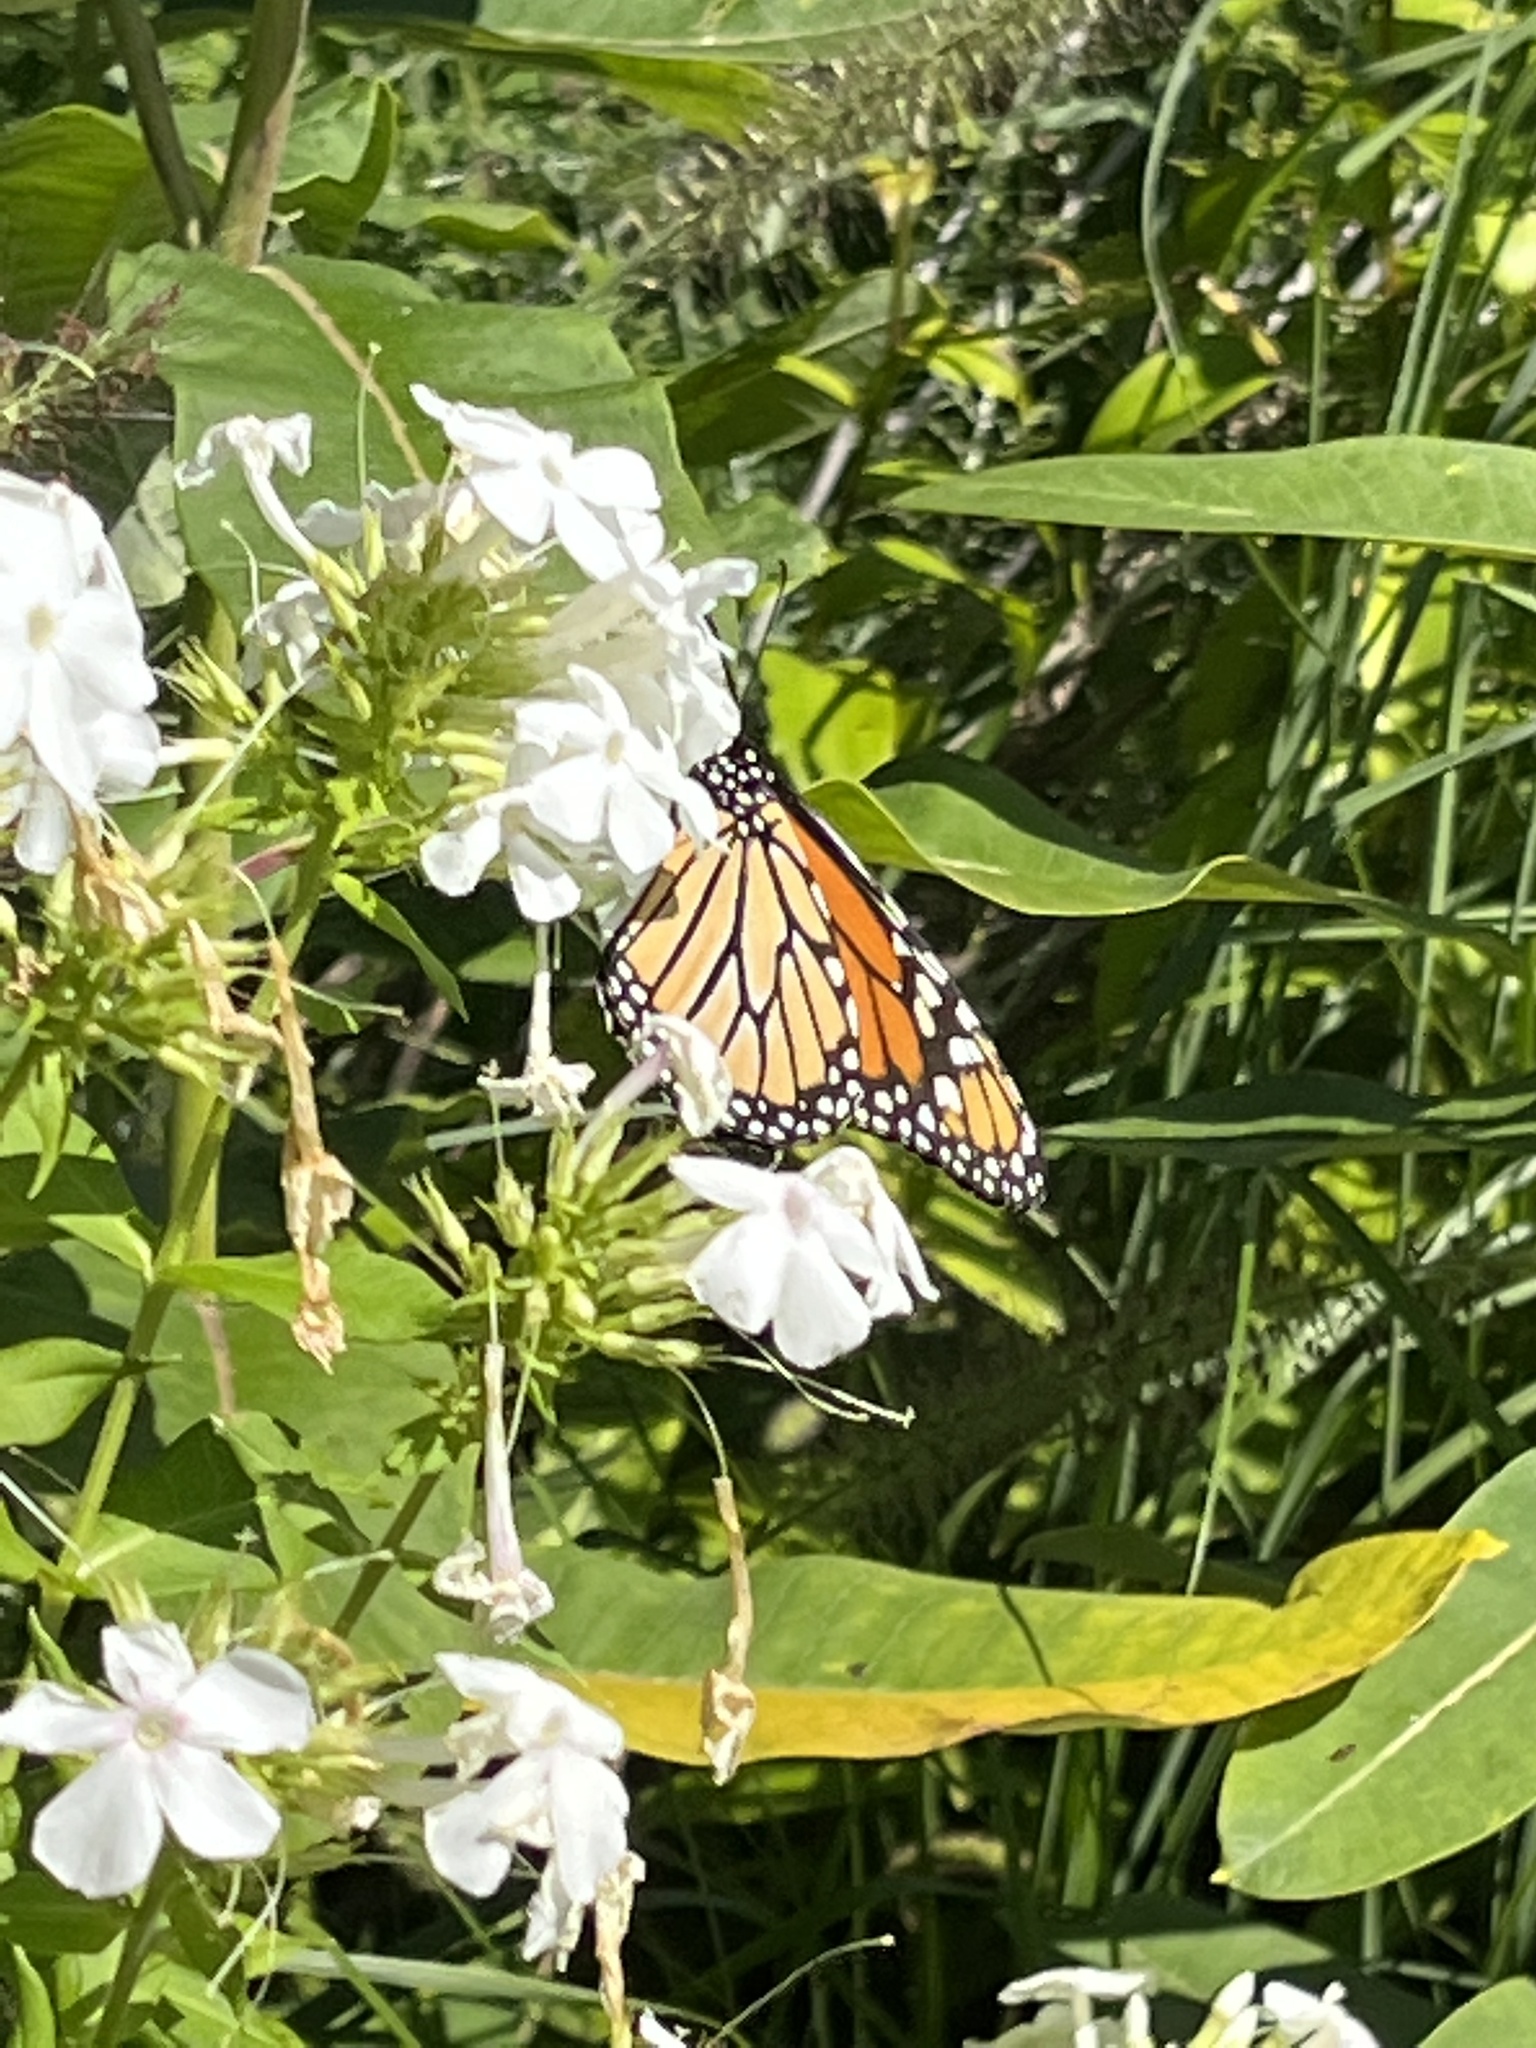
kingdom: Animalia
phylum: Arthropoda
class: Insecta
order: Lepidoptera
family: Nymphalidae
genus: Danaus
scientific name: Danaus plexippus
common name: Monarch
